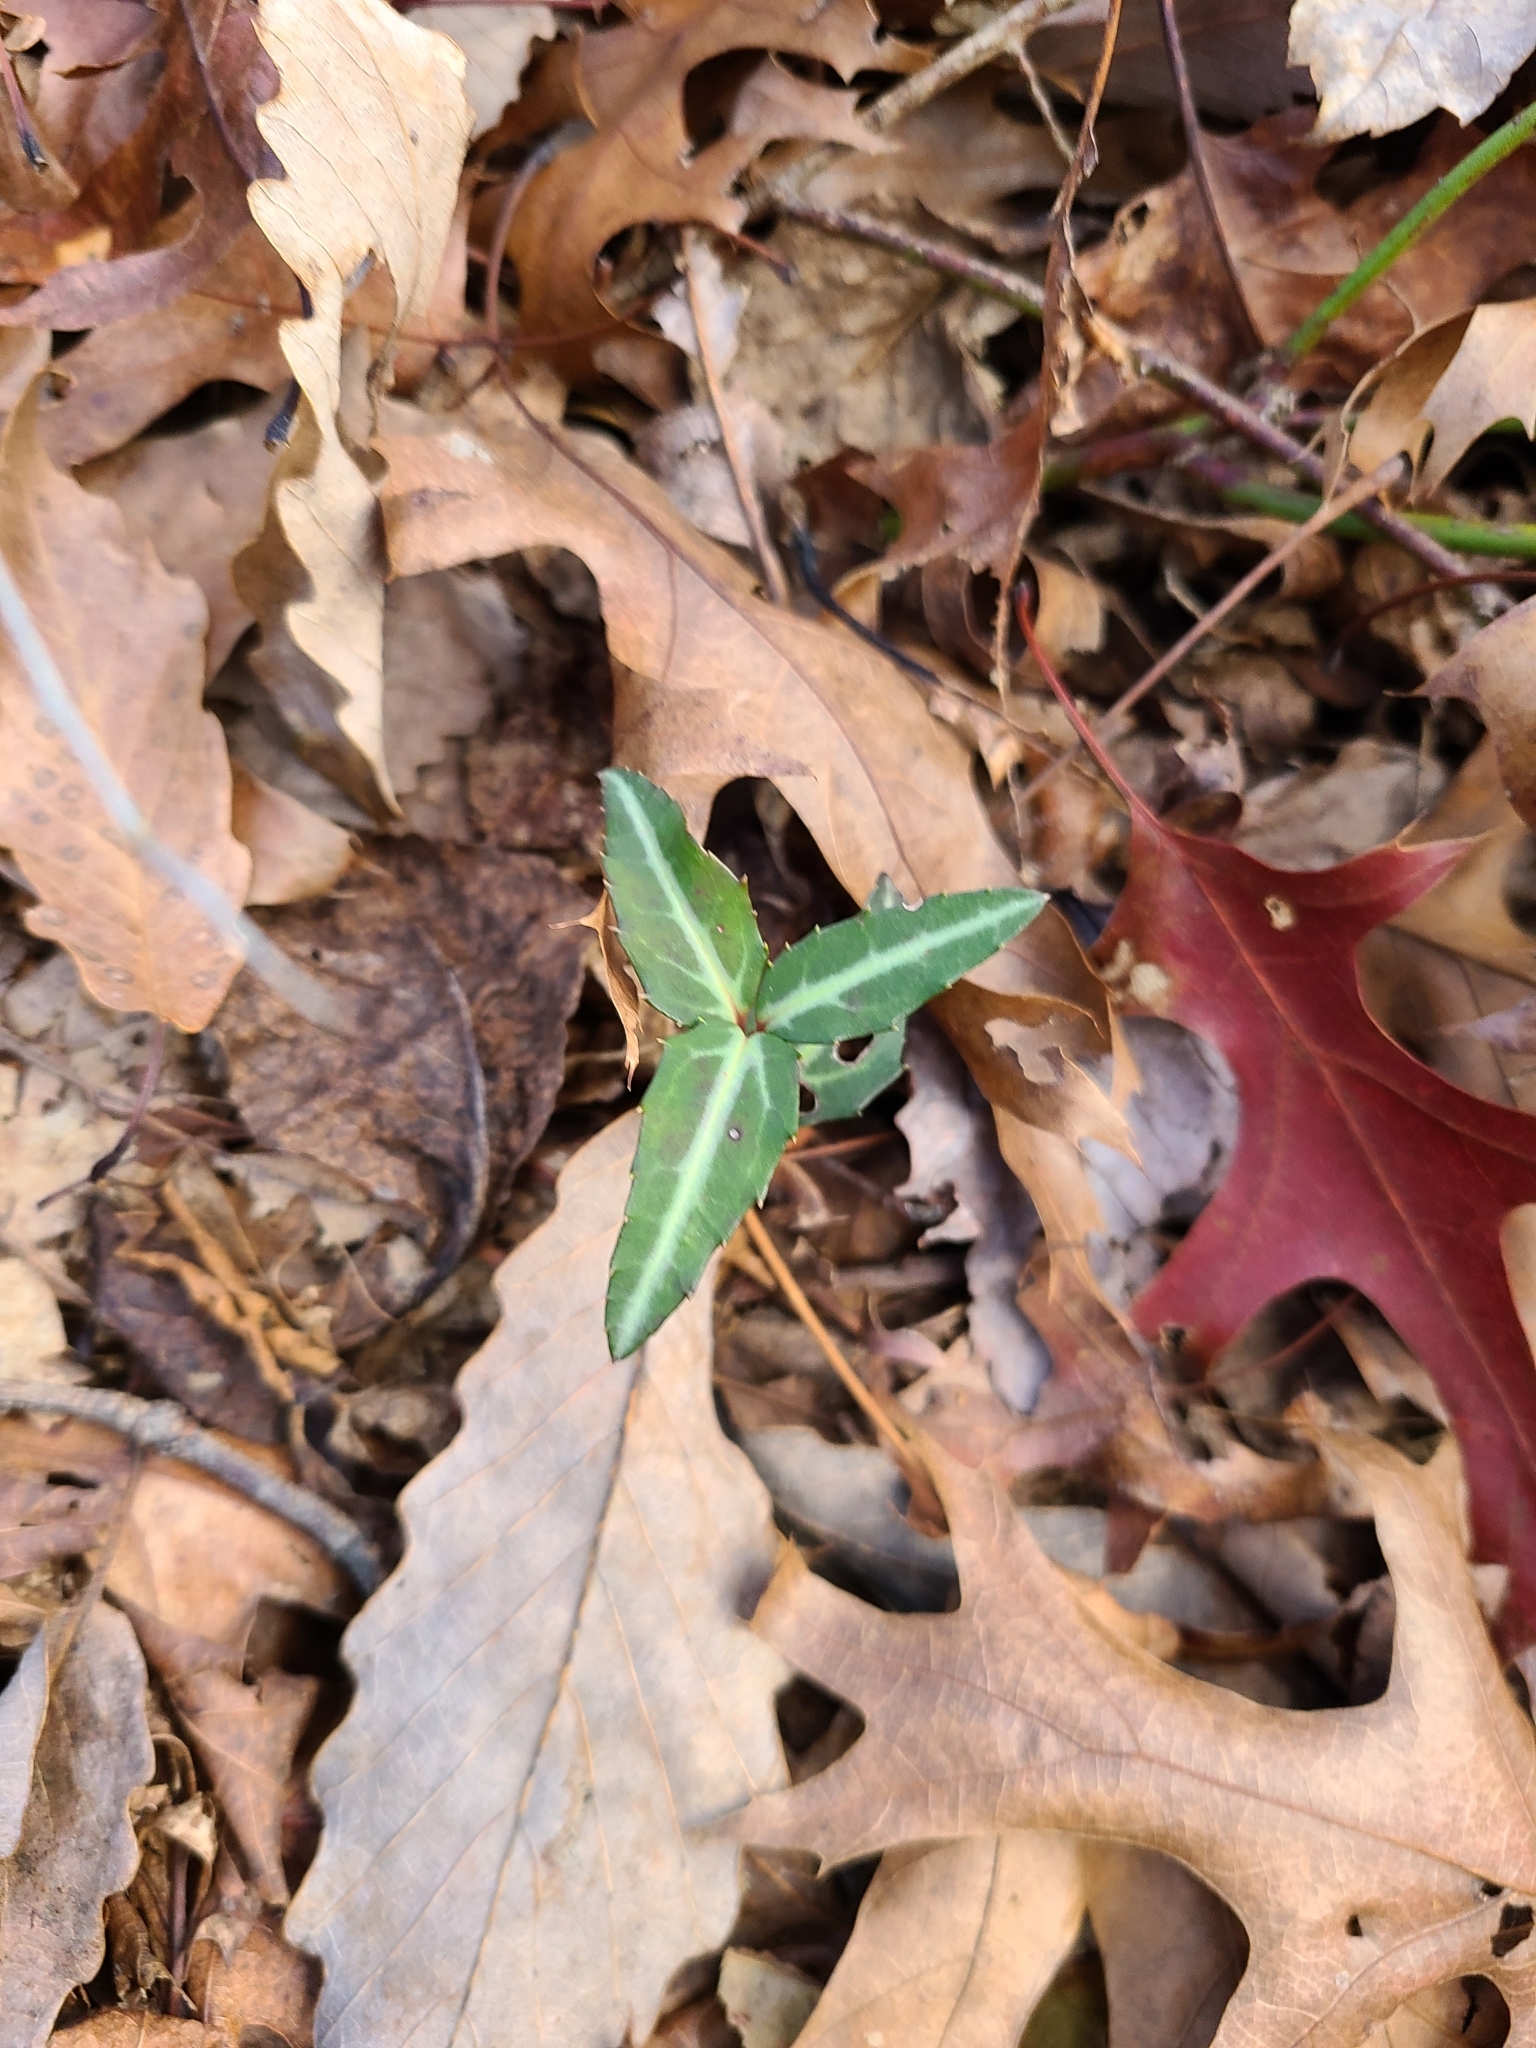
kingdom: Plantae
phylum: Tracheophyta
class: Magnoliopsida
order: Ericales
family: Ericaceae
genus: Chimaphila
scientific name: Chimaphila maculata
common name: Spotted pipsissewa
